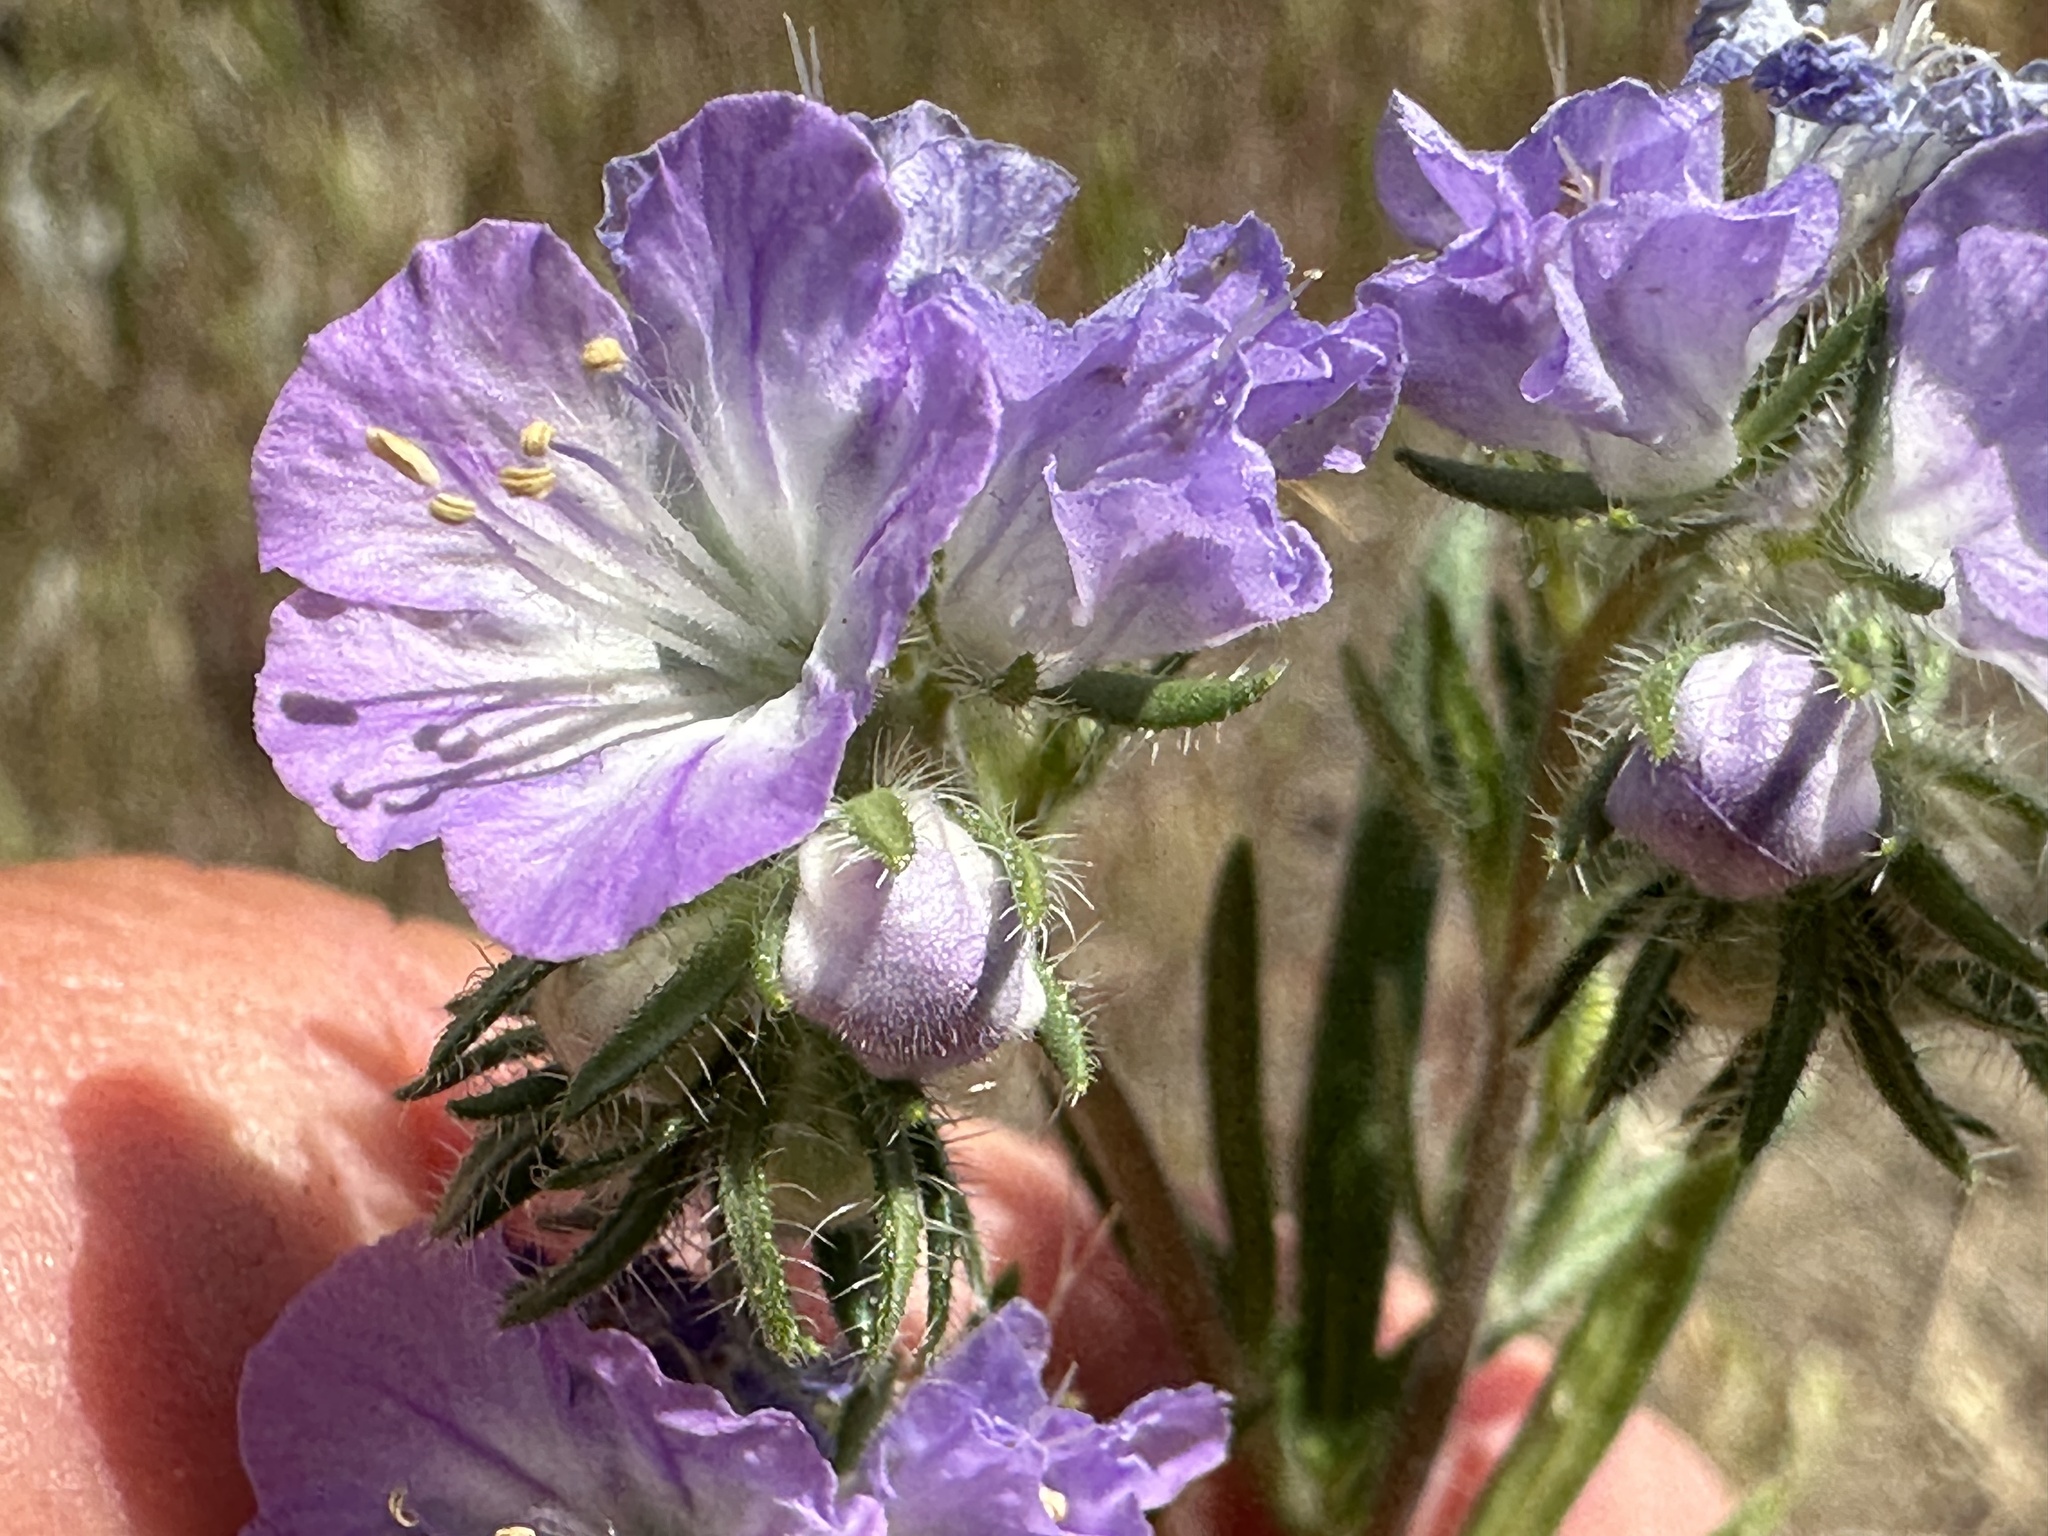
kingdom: Plantae
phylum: Tracheophyta
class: Magnoliopsida
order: Boraginales
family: Hydrophyllaceae
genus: Phacelia
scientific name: Phacelia linearis
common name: Linear-leaved phacelia
